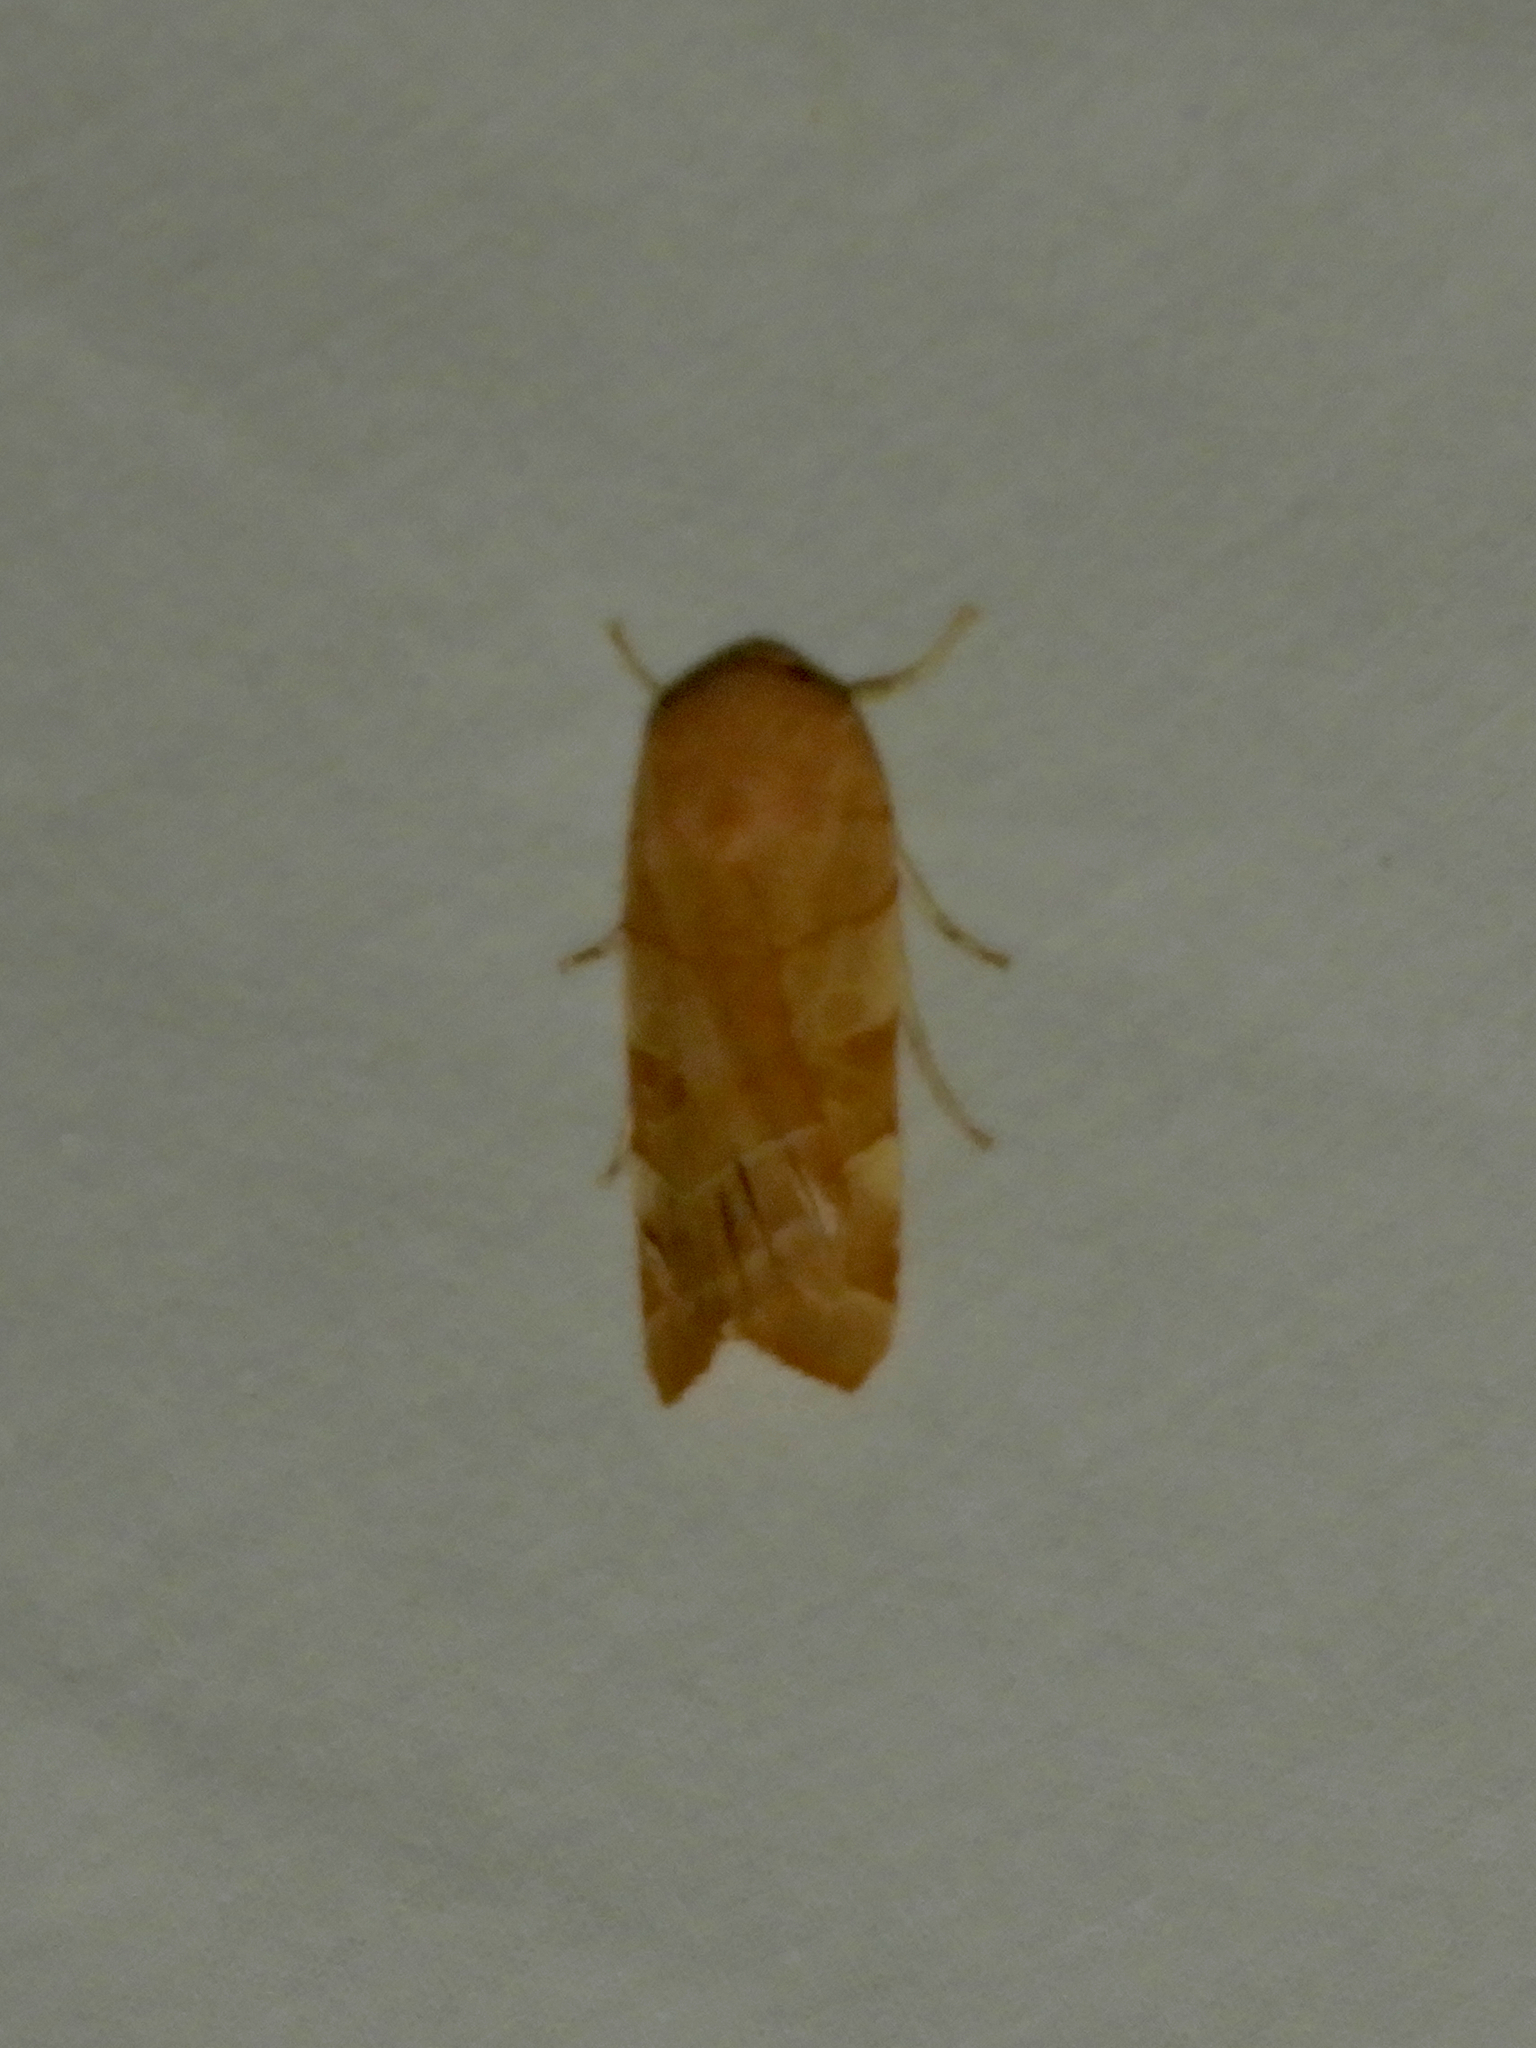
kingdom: Animalia
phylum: Arthropoda
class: Insecta
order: Lepidoptera
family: Noctuidae
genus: Noctua
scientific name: Noctua fimbriata
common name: Broad-bordered yellow underwing
